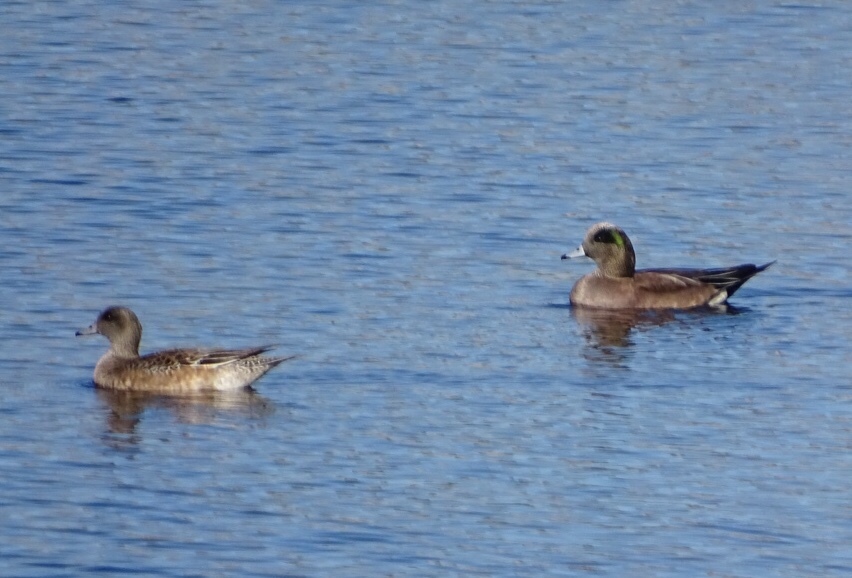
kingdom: Animalia
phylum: Chordata
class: Aves
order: Anseriformes
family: Anatidae
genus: Mareca
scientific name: Mareca americana
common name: American wigeon
